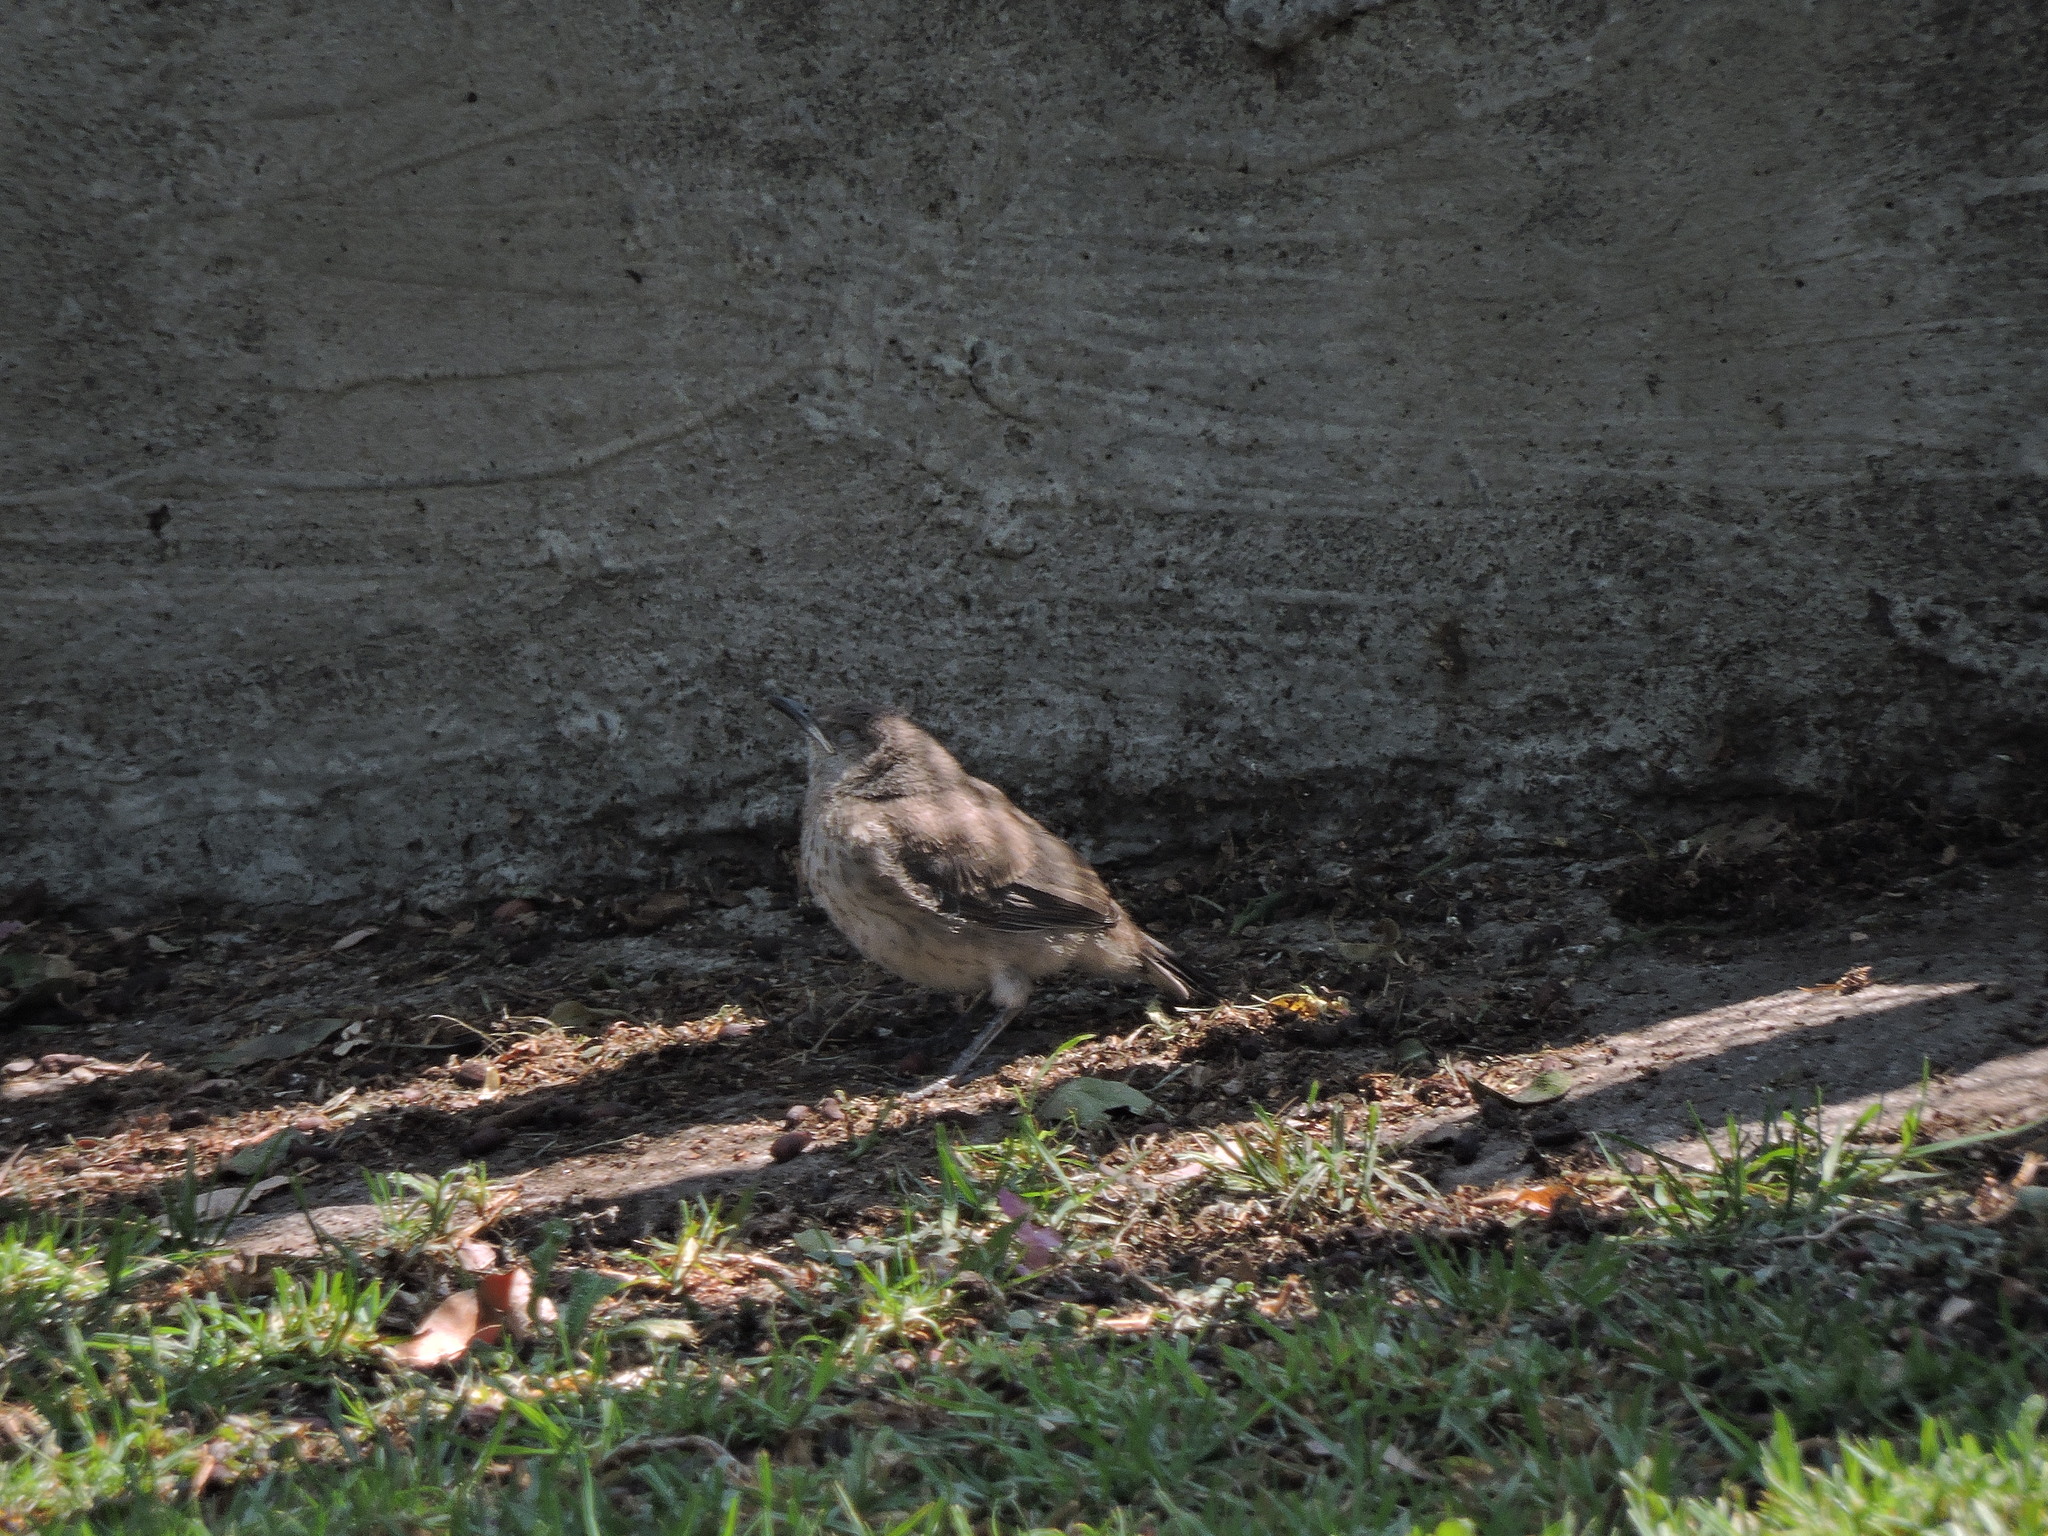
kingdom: Animalia
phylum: Chordata
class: Aves
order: Passeriformes
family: Mimidae
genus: Toxostoma
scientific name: Toxostoma curvirostre
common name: Curve-billed thrasher
